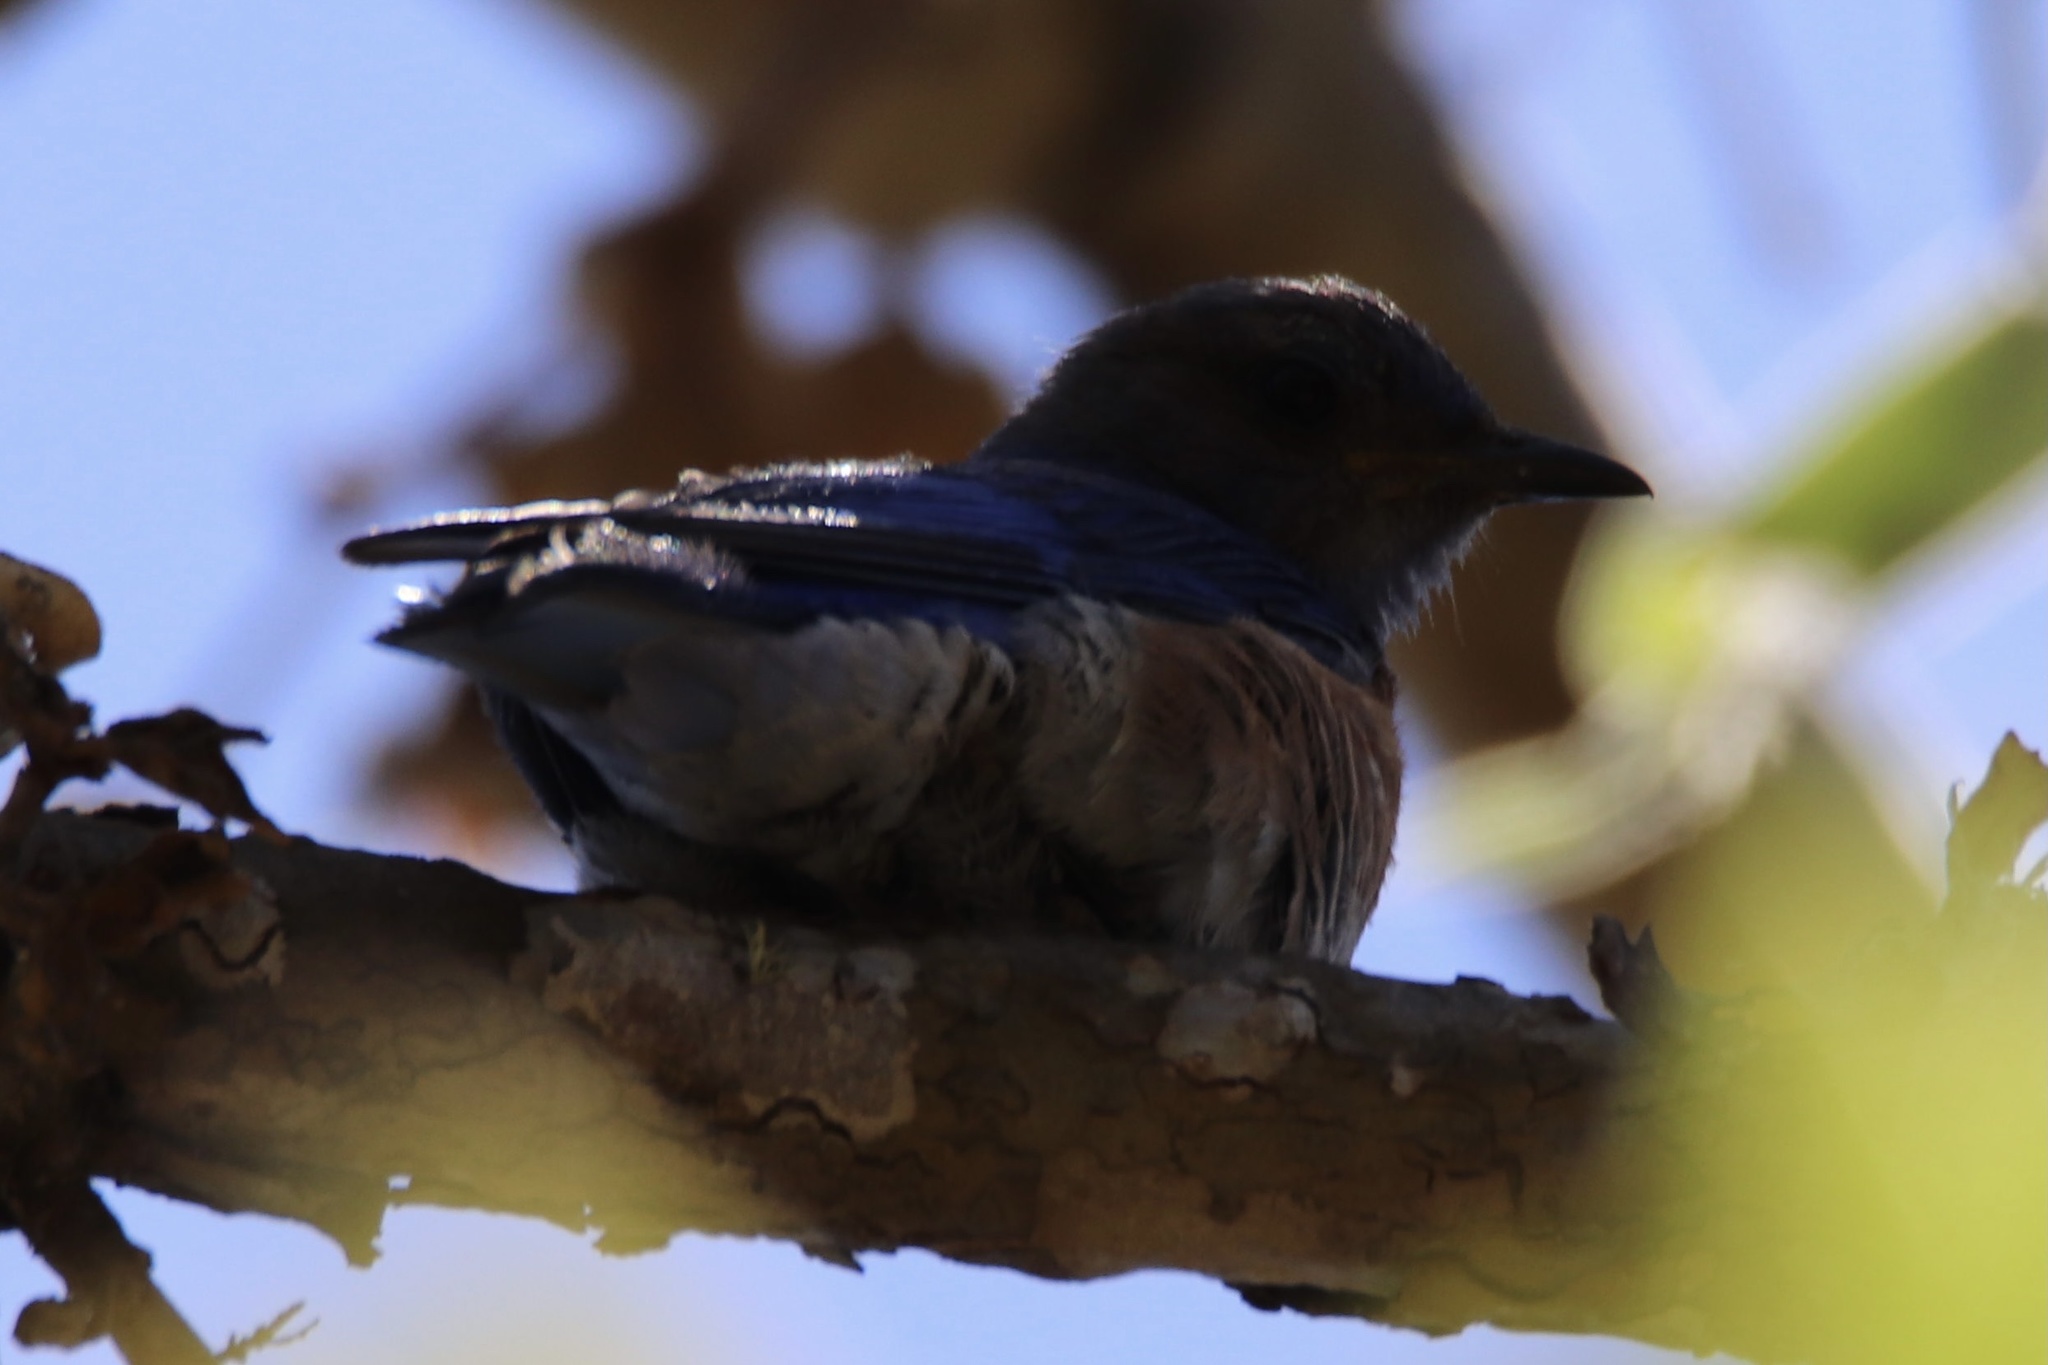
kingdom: Animalia
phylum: Chordata
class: Aves
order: Passeriformes
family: Turdidae
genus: Sialia
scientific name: Sialia mexicana
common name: Western bluebird
